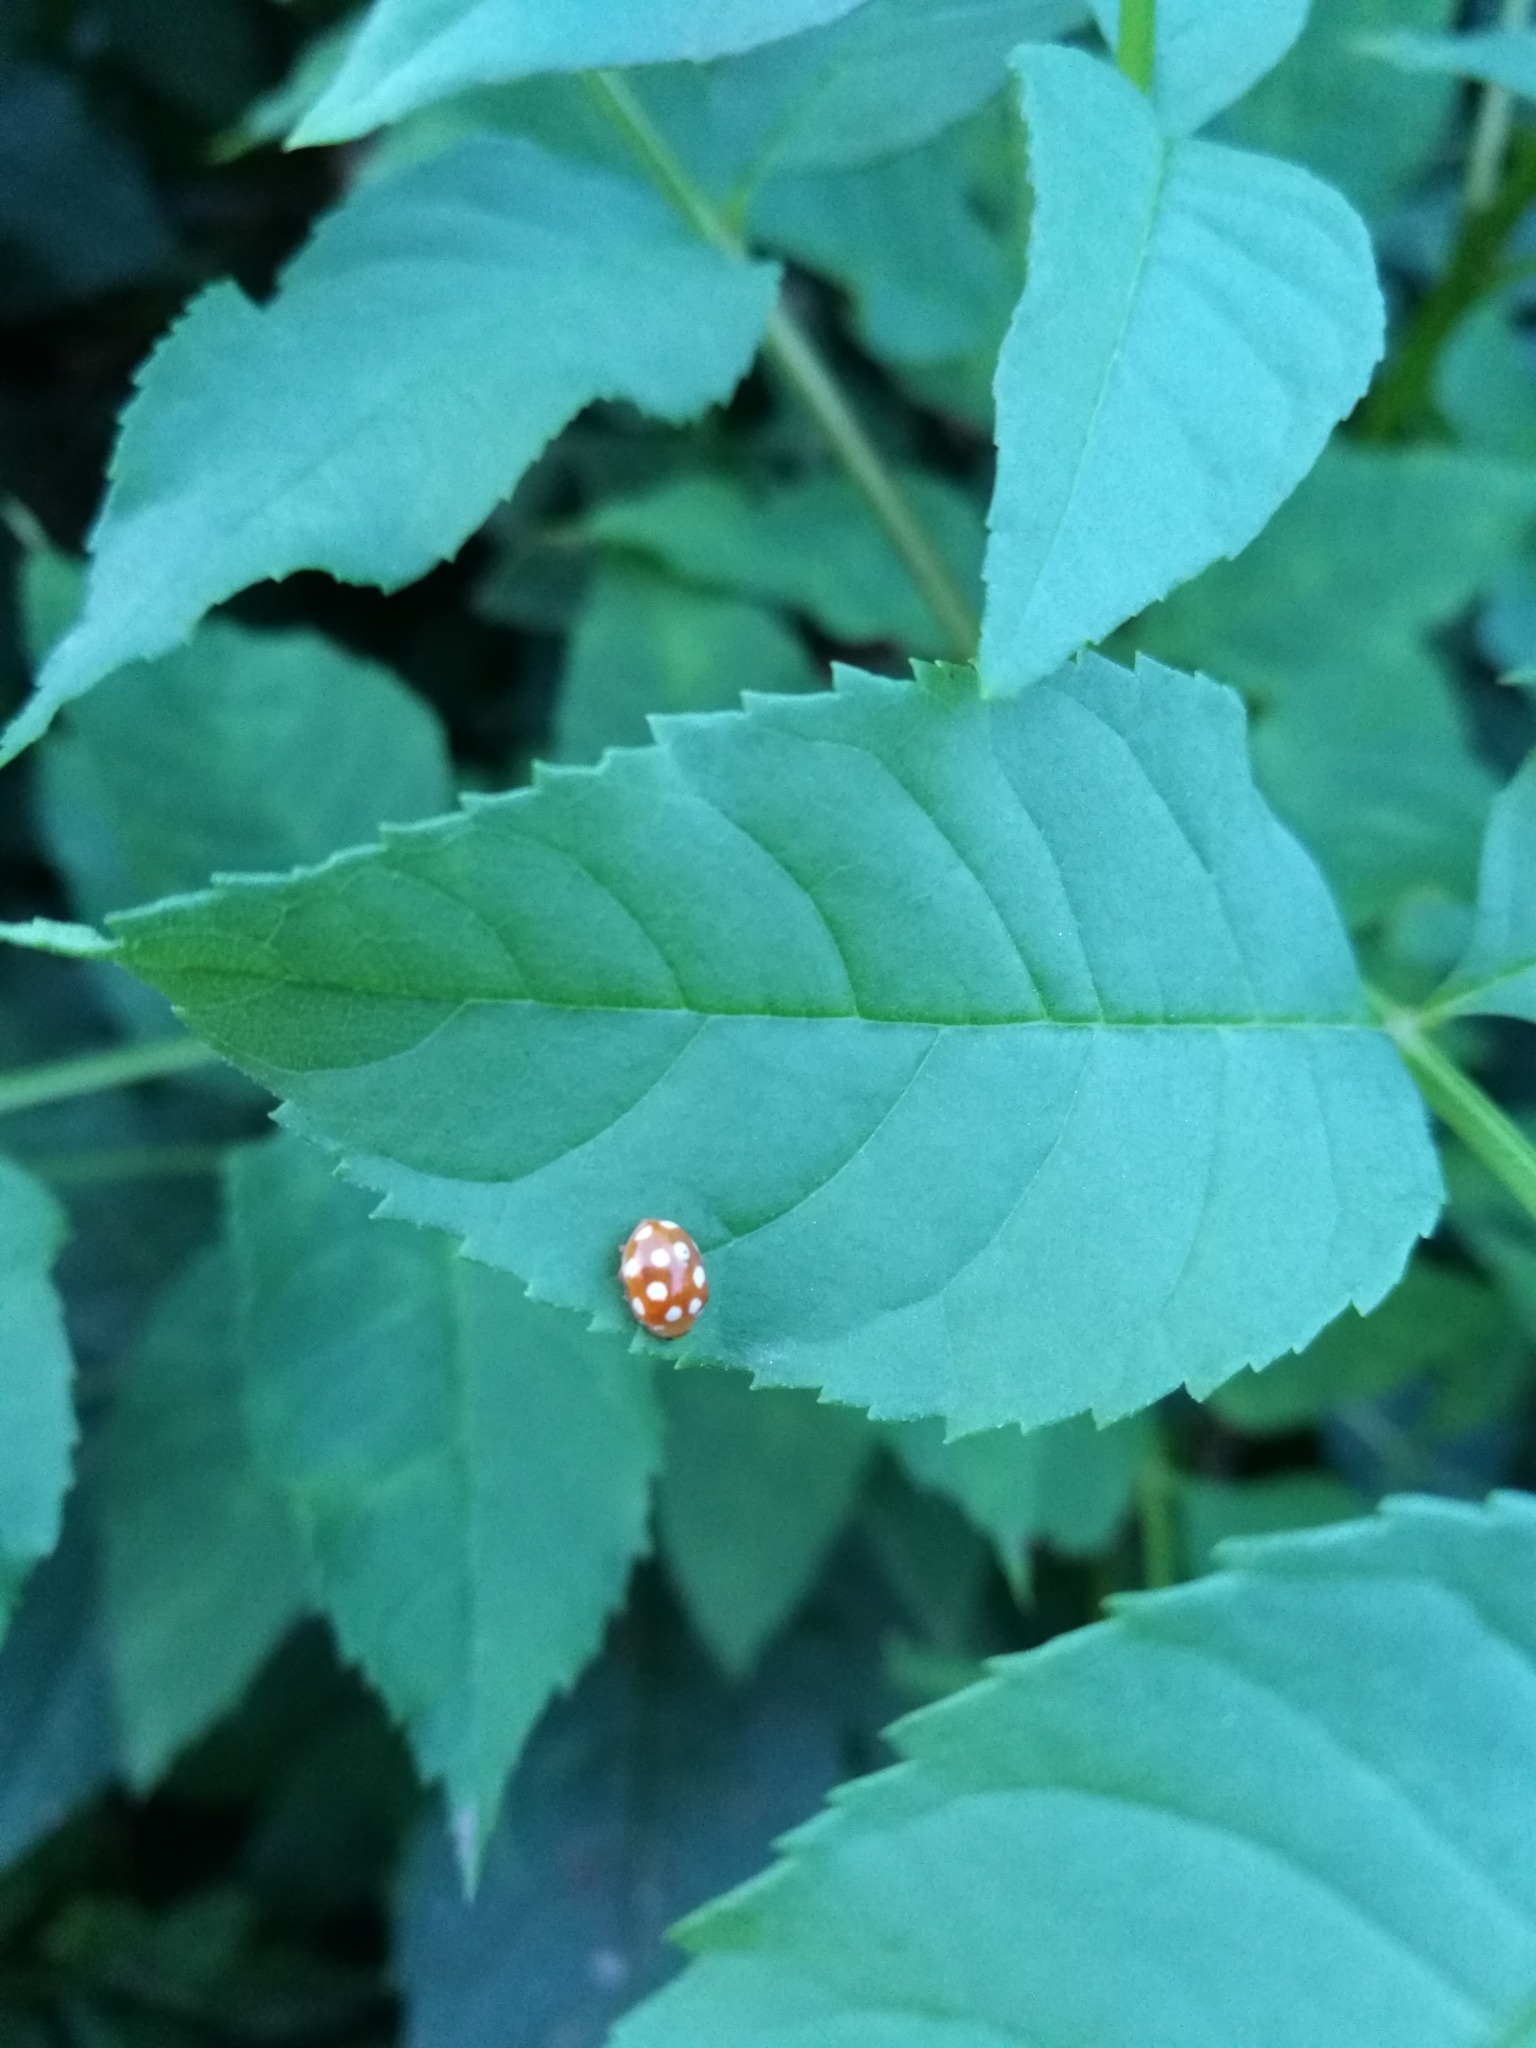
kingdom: Animalia
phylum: Arthropoda
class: Insecta
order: Coleoptera
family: Coccinellidae
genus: Vibidia
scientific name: Vibidia duodecimguttata
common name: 12-spot ladybird
